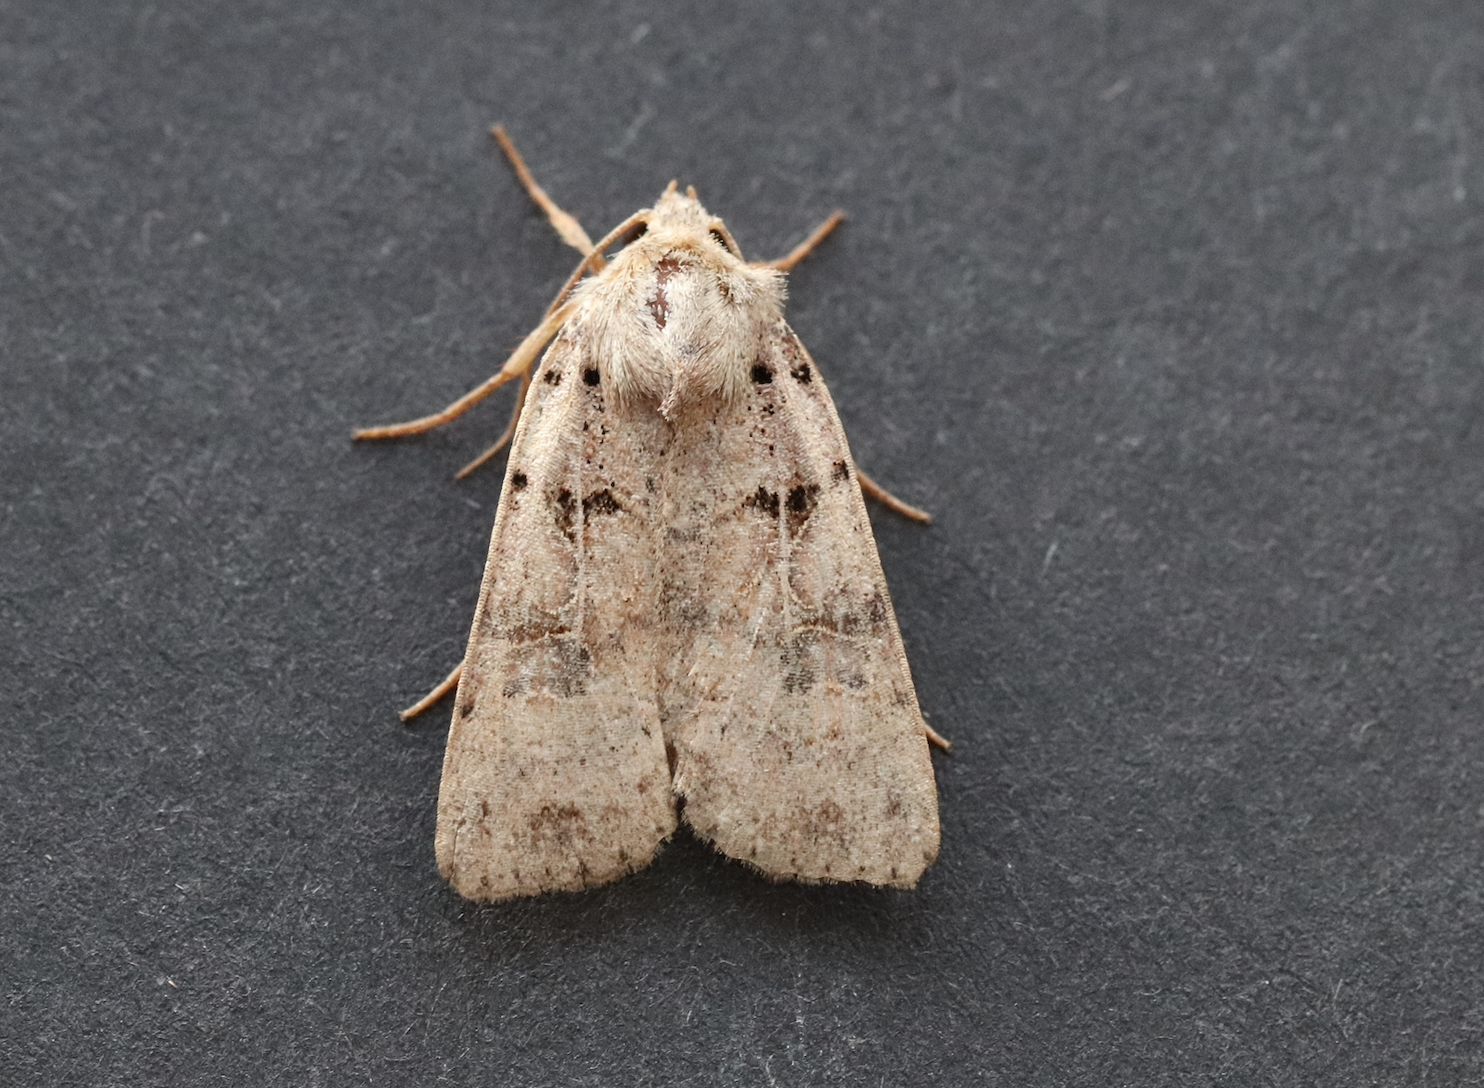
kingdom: Animalia
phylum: Arthropoda
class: Insecta
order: Lepidoptera
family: Noctuidae
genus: Eugnorisma
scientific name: Eugnorisma depuncta
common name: Plain clay
